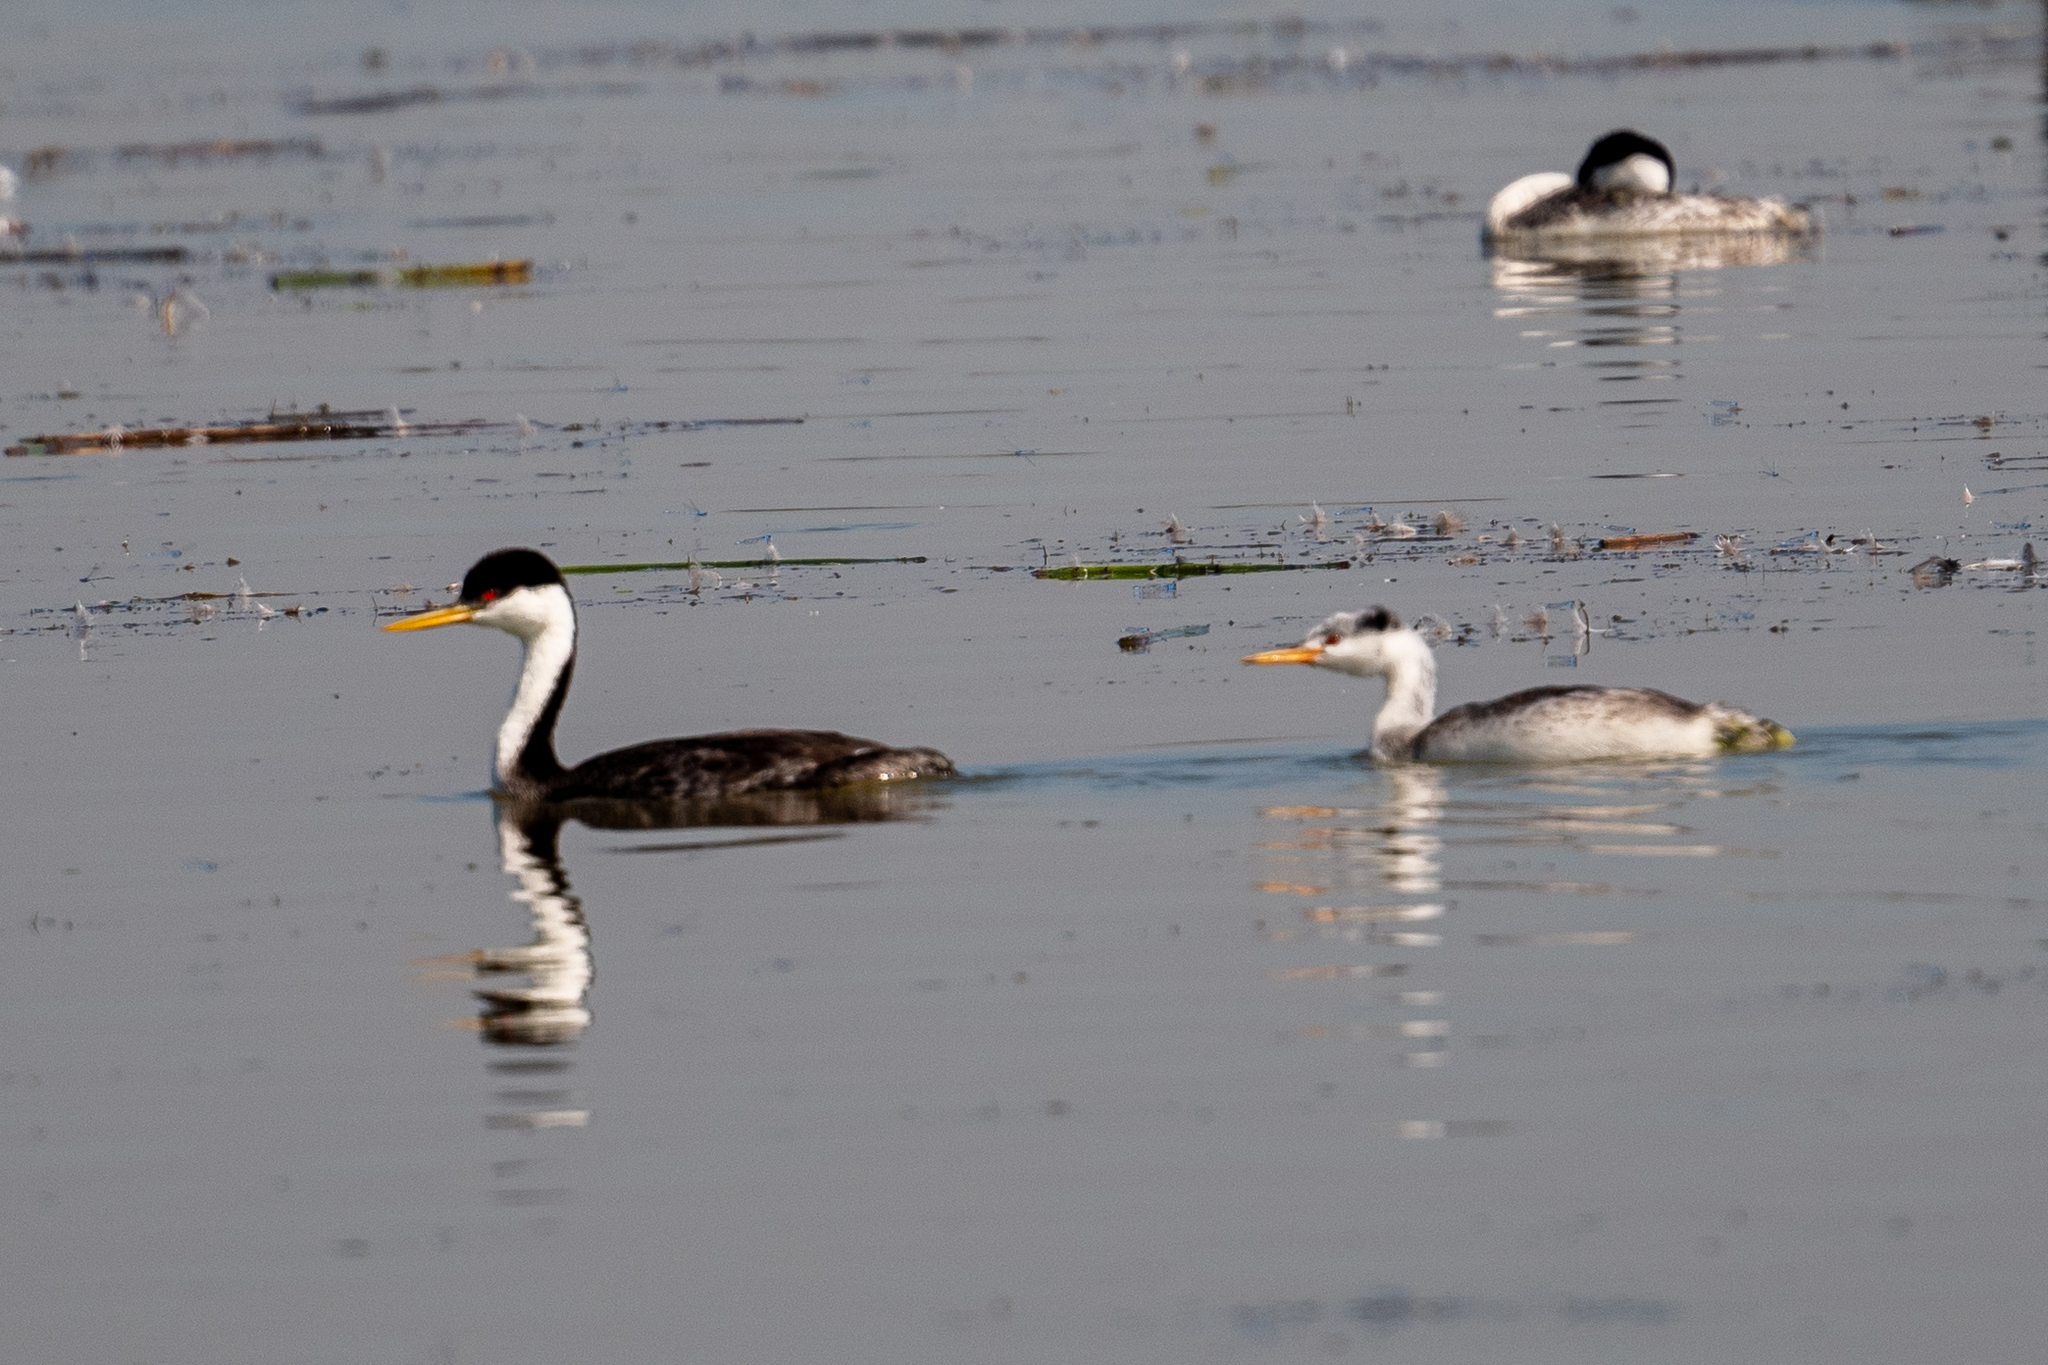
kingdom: Animalia
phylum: Chordata
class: Aves
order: Podicipediformes
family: Podicipedidae
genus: Aechmophorus
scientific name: Aechmophorus occidentalis
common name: Western grebe
